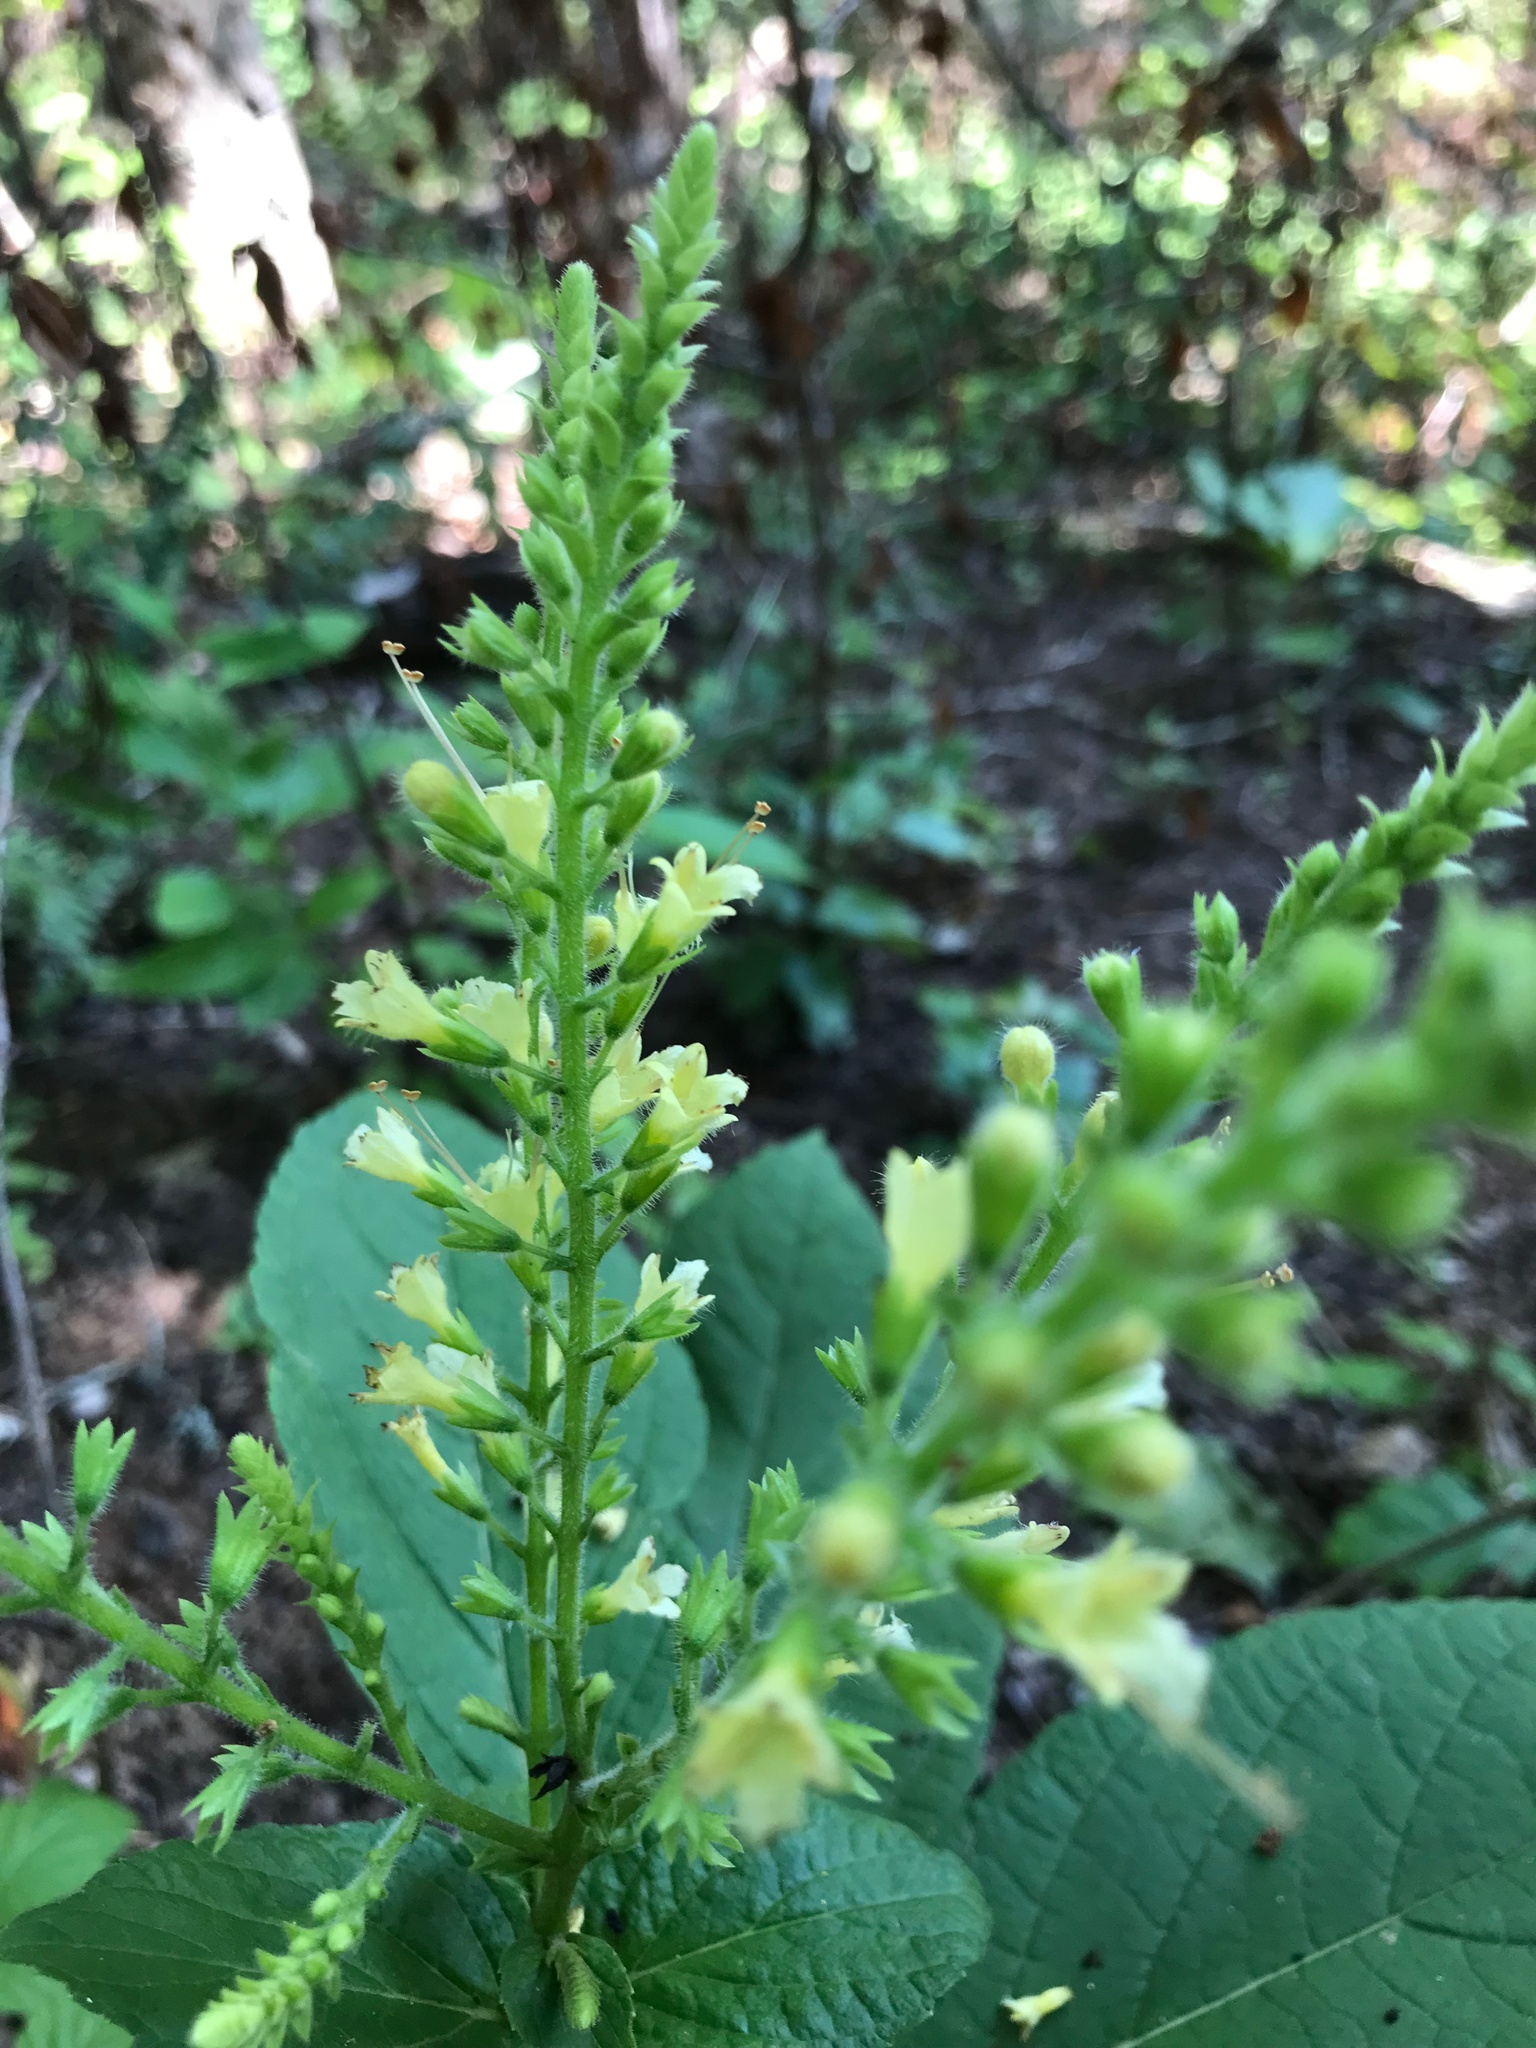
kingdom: Plantae
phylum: Tracheophyta
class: Magnoliopsida
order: Lamiales
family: Lamiaceae
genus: Collinsonia
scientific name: Collinsonia canadensis
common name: Northern horsebalm
